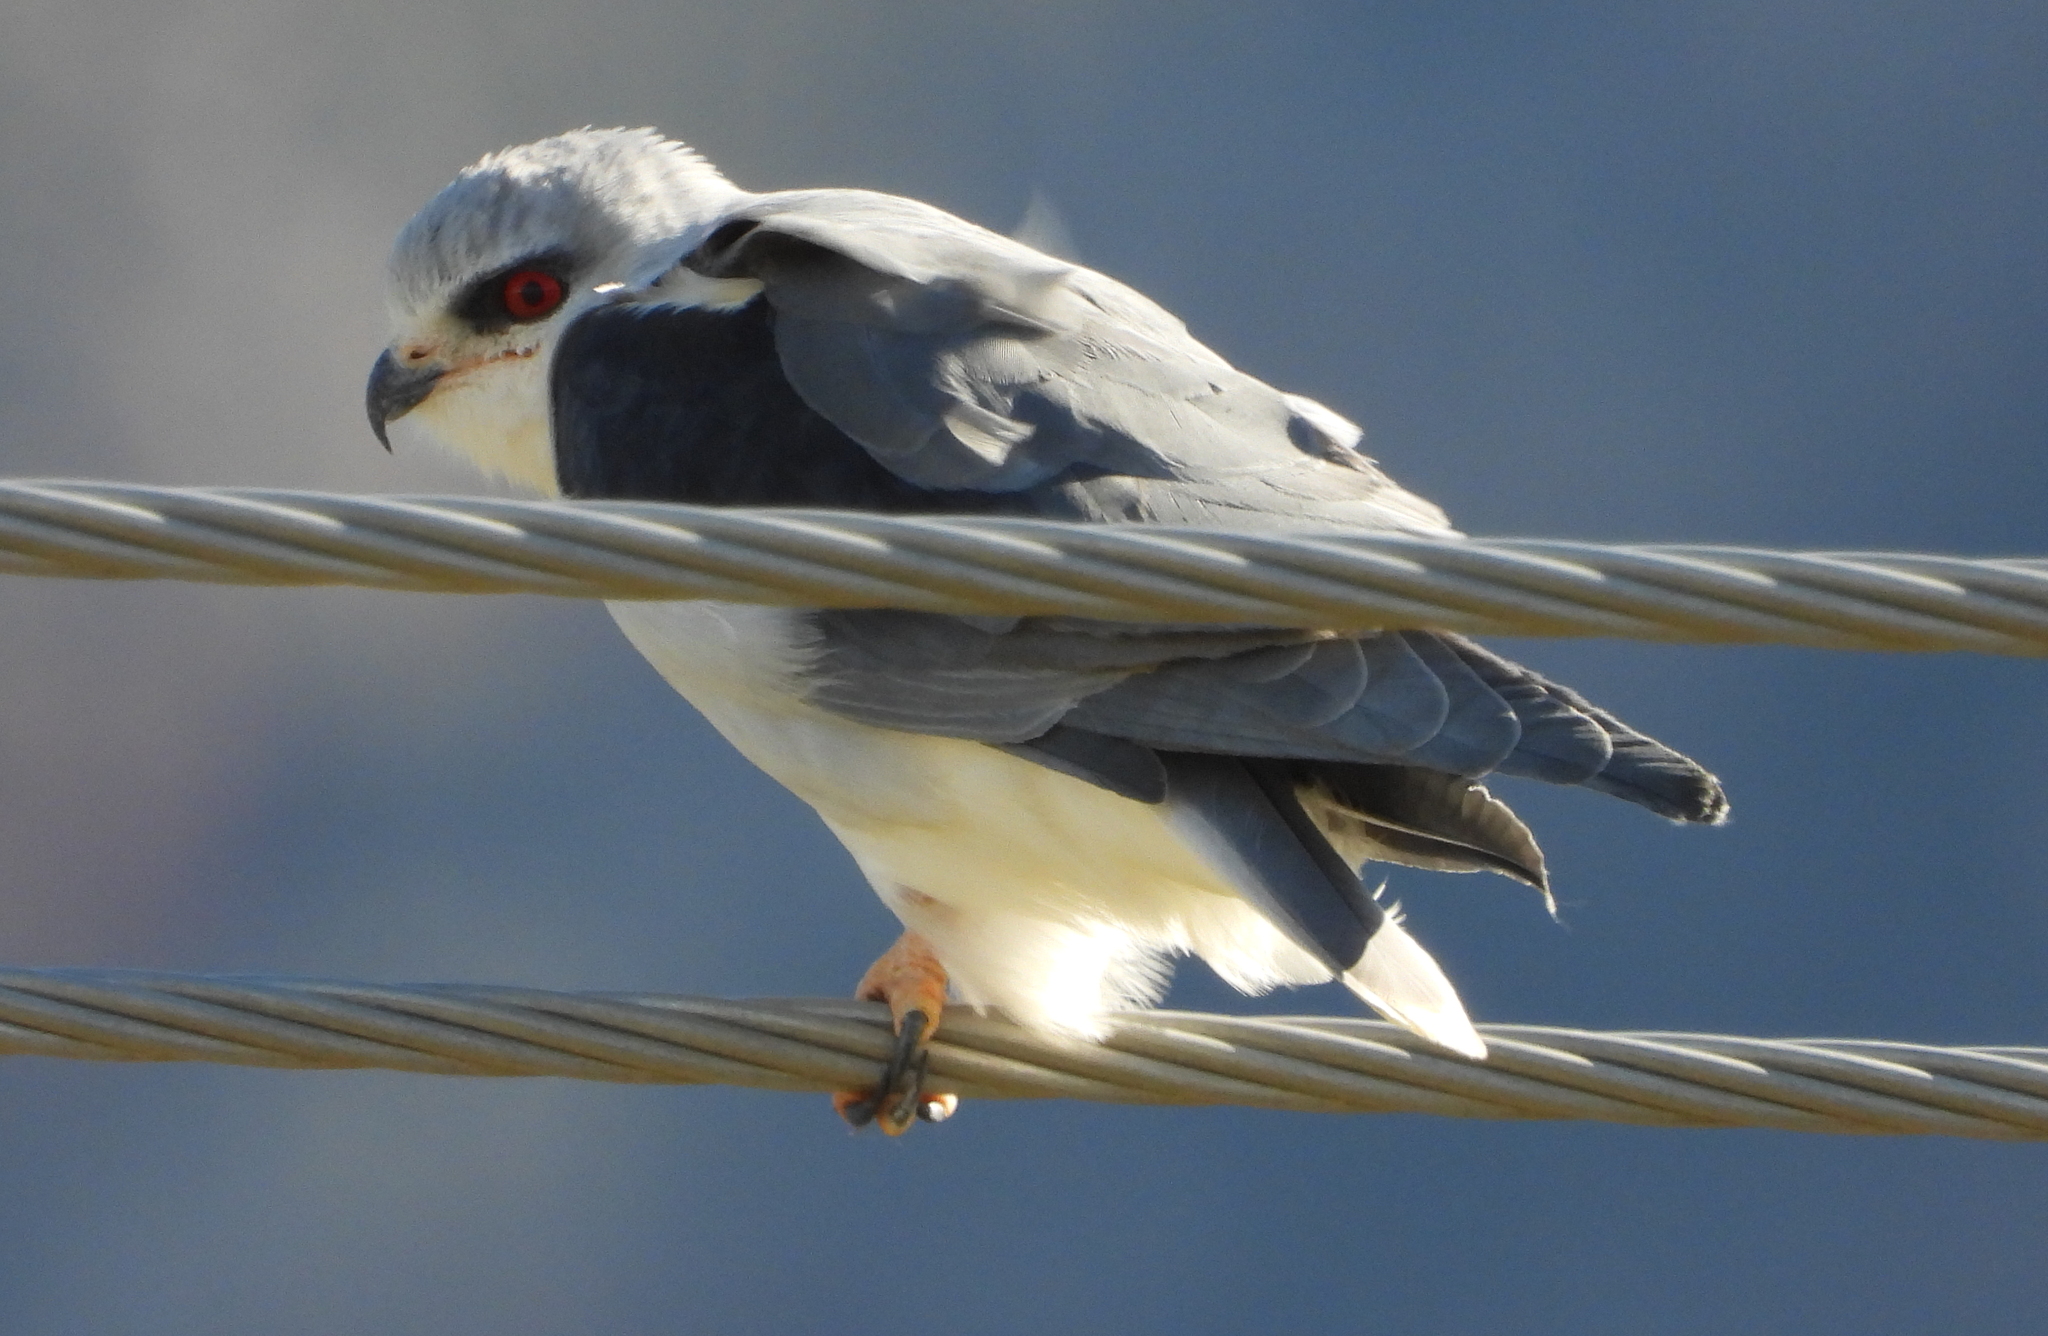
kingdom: Animalia
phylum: Chordata
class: Aves
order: Accipitriformes
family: Accipitridae
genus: Elanus
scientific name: Elanus caeruleus
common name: Black-winged kite
